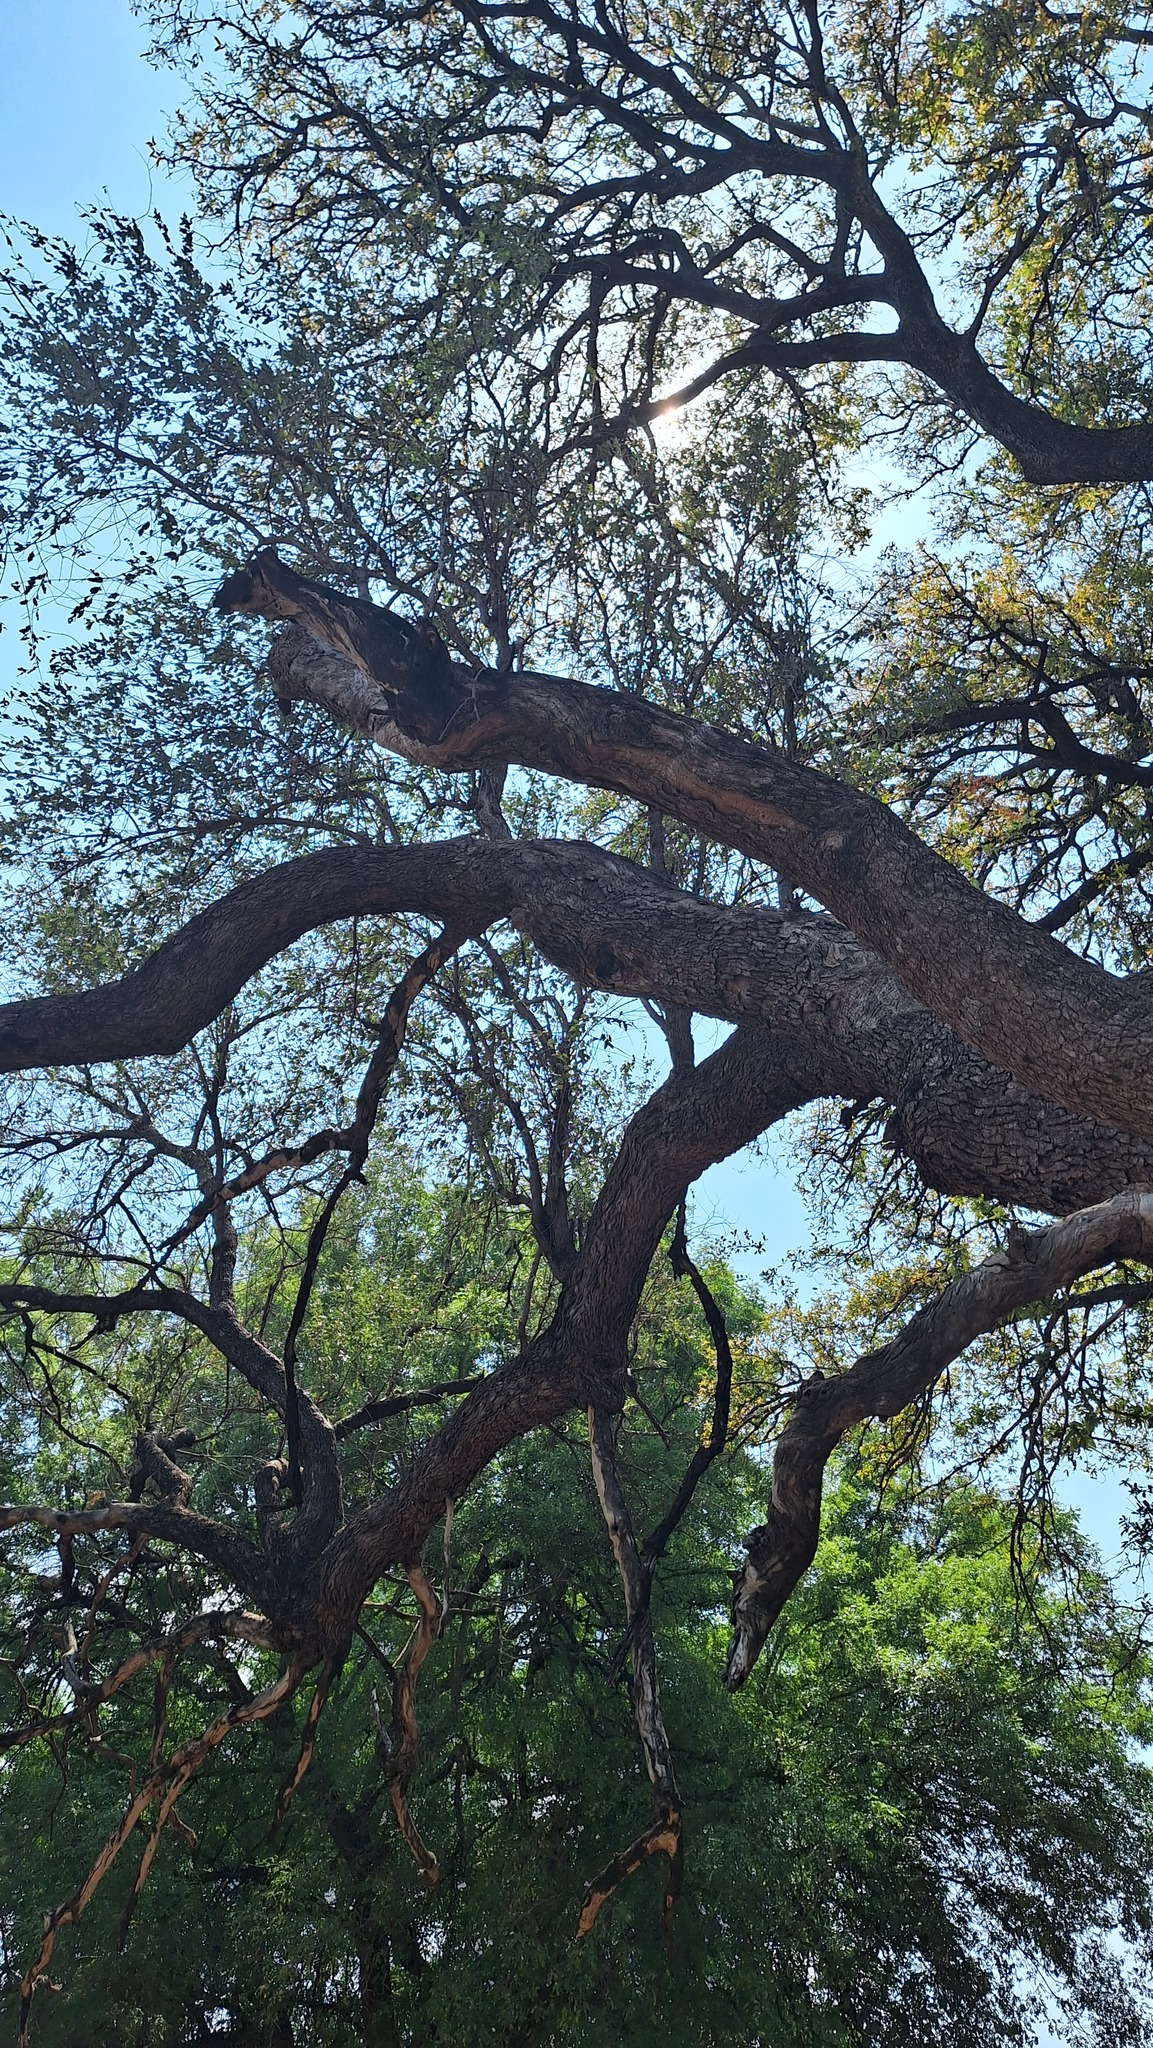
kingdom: Plantae
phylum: Tracheophyta
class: Magnoliopsida
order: Myrtales
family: Combretaceae
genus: Combretum
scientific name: Combretum imberbe
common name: Leadwood
